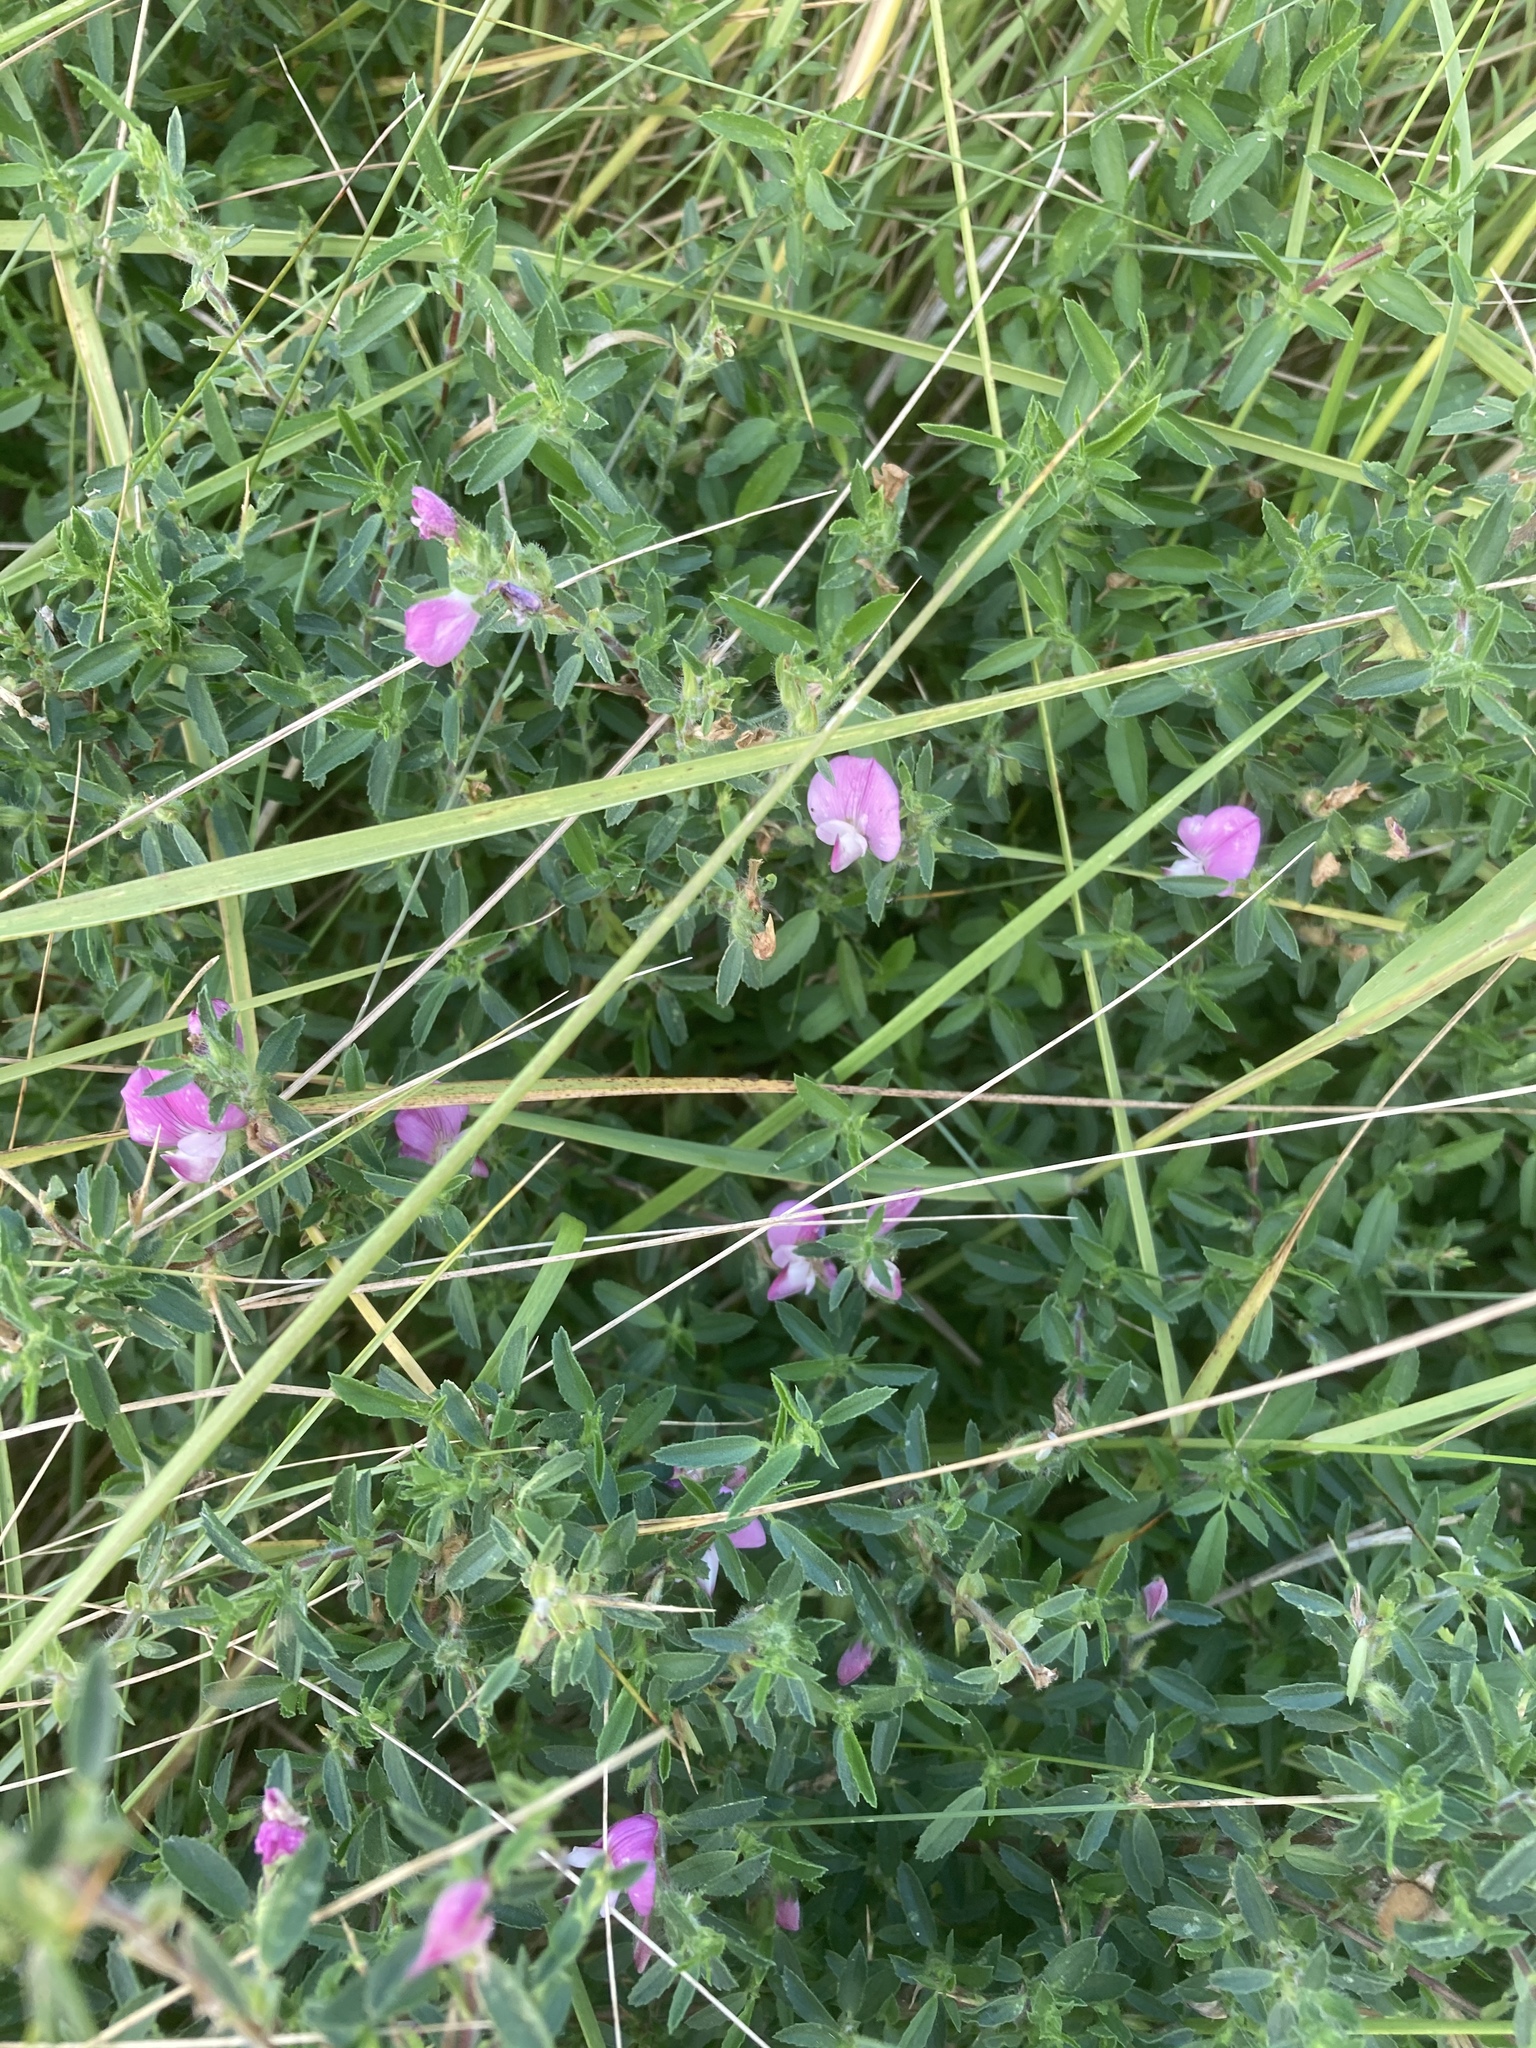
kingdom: Plantae
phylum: Tracheophyta
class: Magnoliopsida
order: Fabales
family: Fabaceae
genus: Ononis
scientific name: Ononis spinosa
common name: Spiny restharrow
